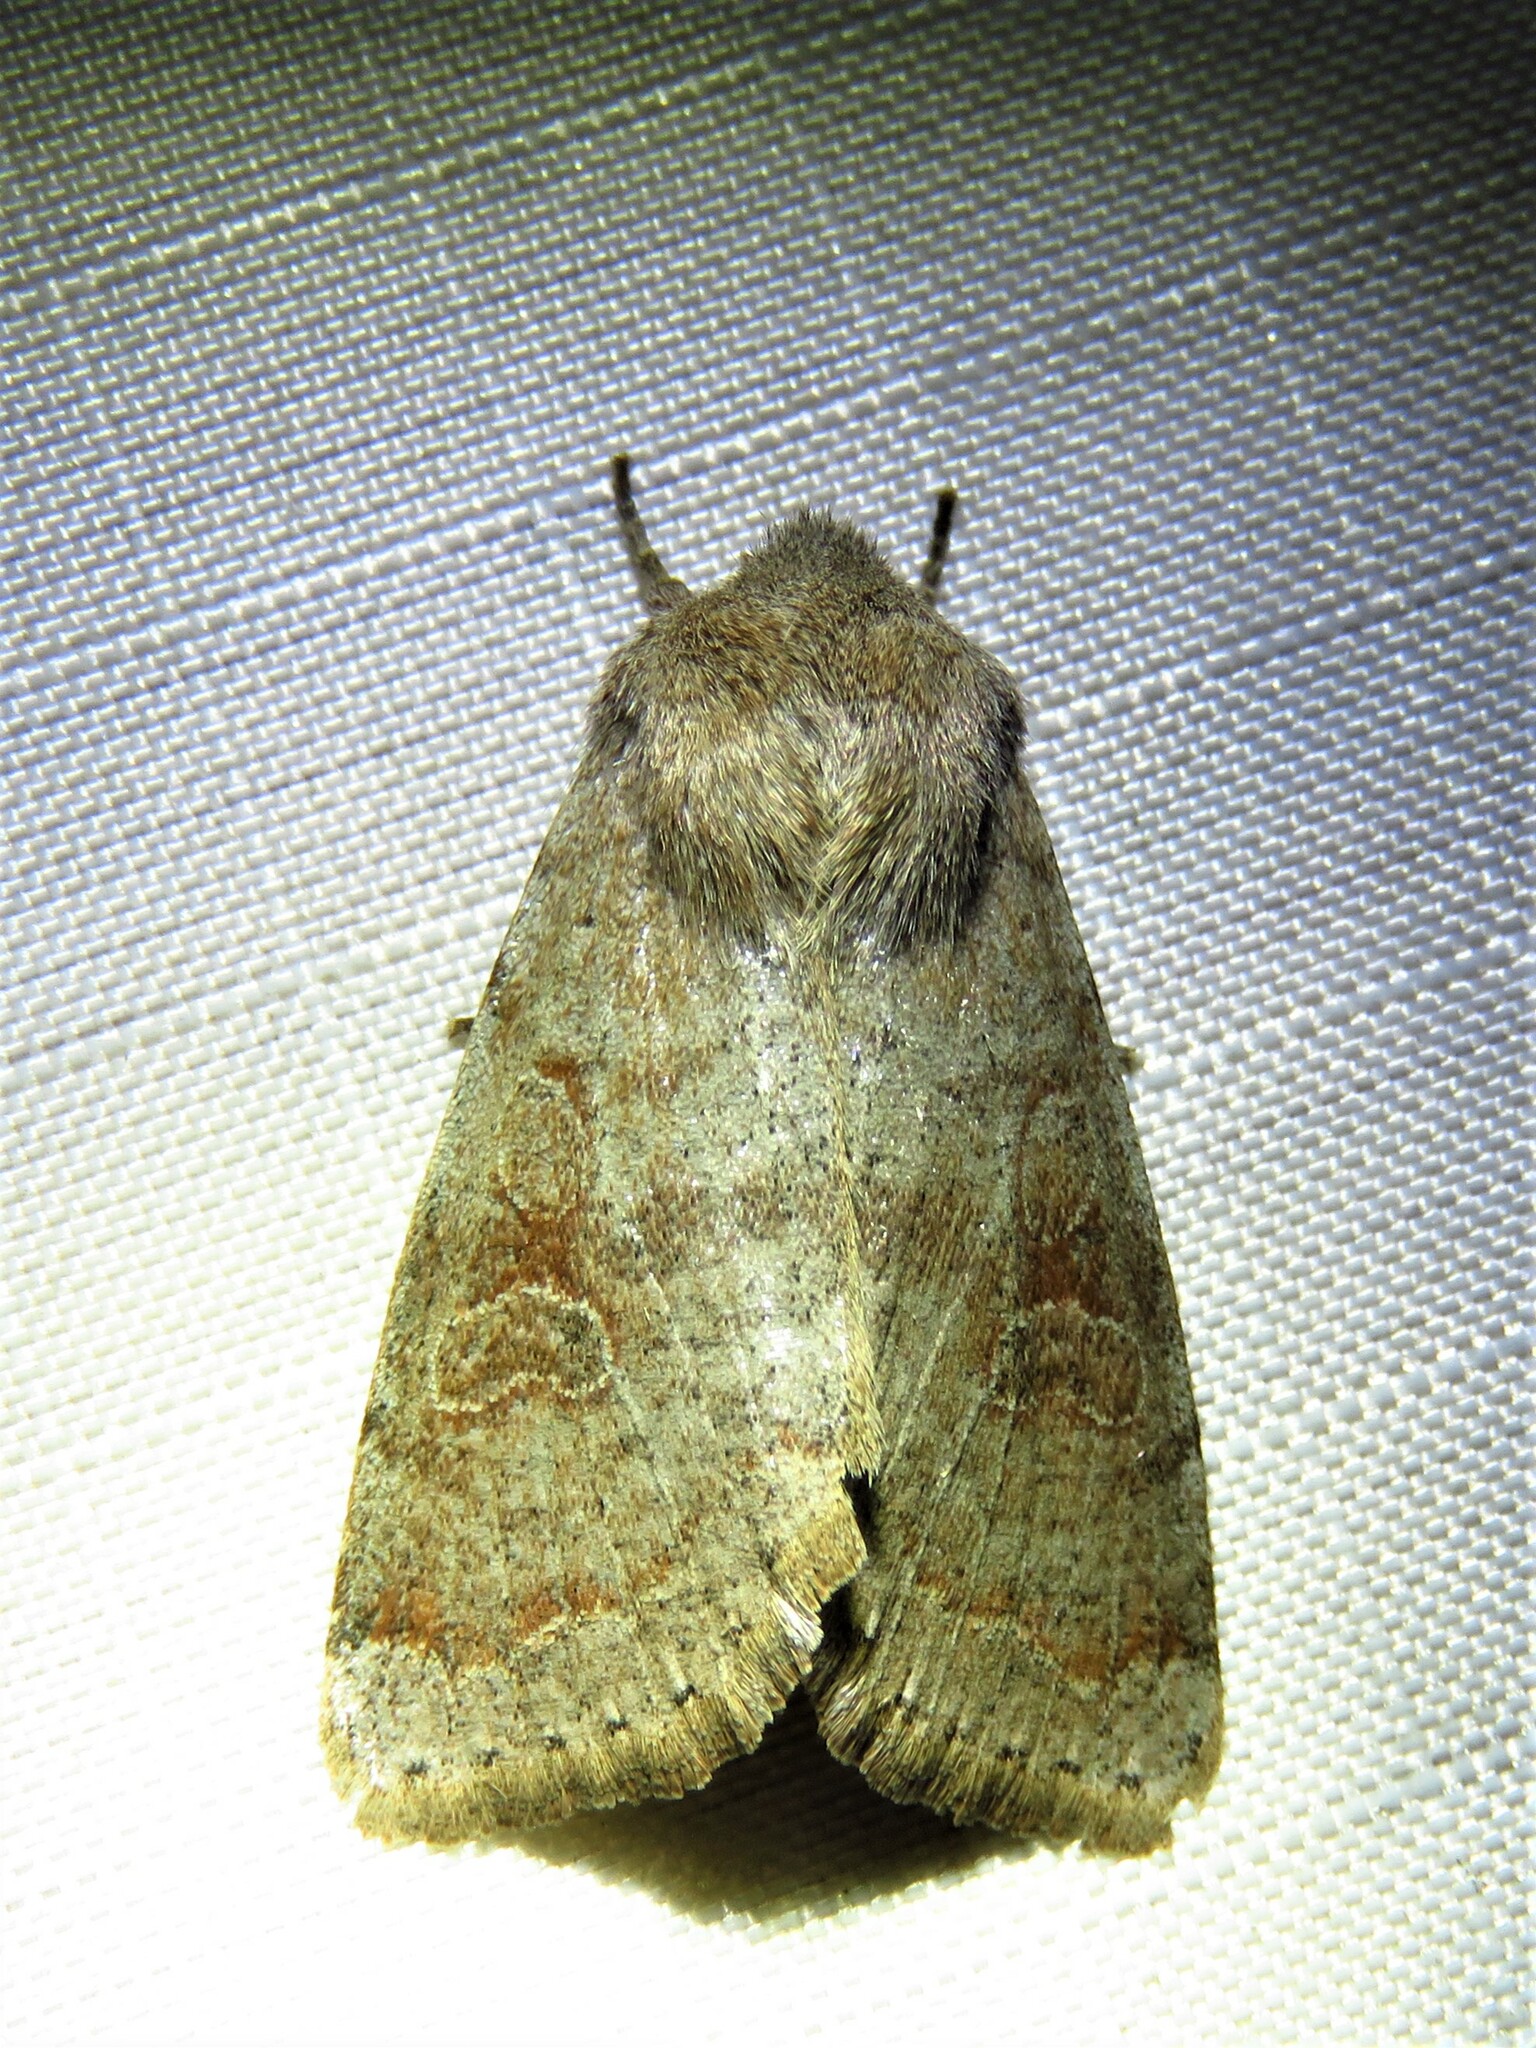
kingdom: Animalia
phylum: Arthropoda
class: Insecta
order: Lepidoptera
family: Noctuidae
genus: Orthosia
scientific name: Orthosia alurina
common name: Gray quaker
